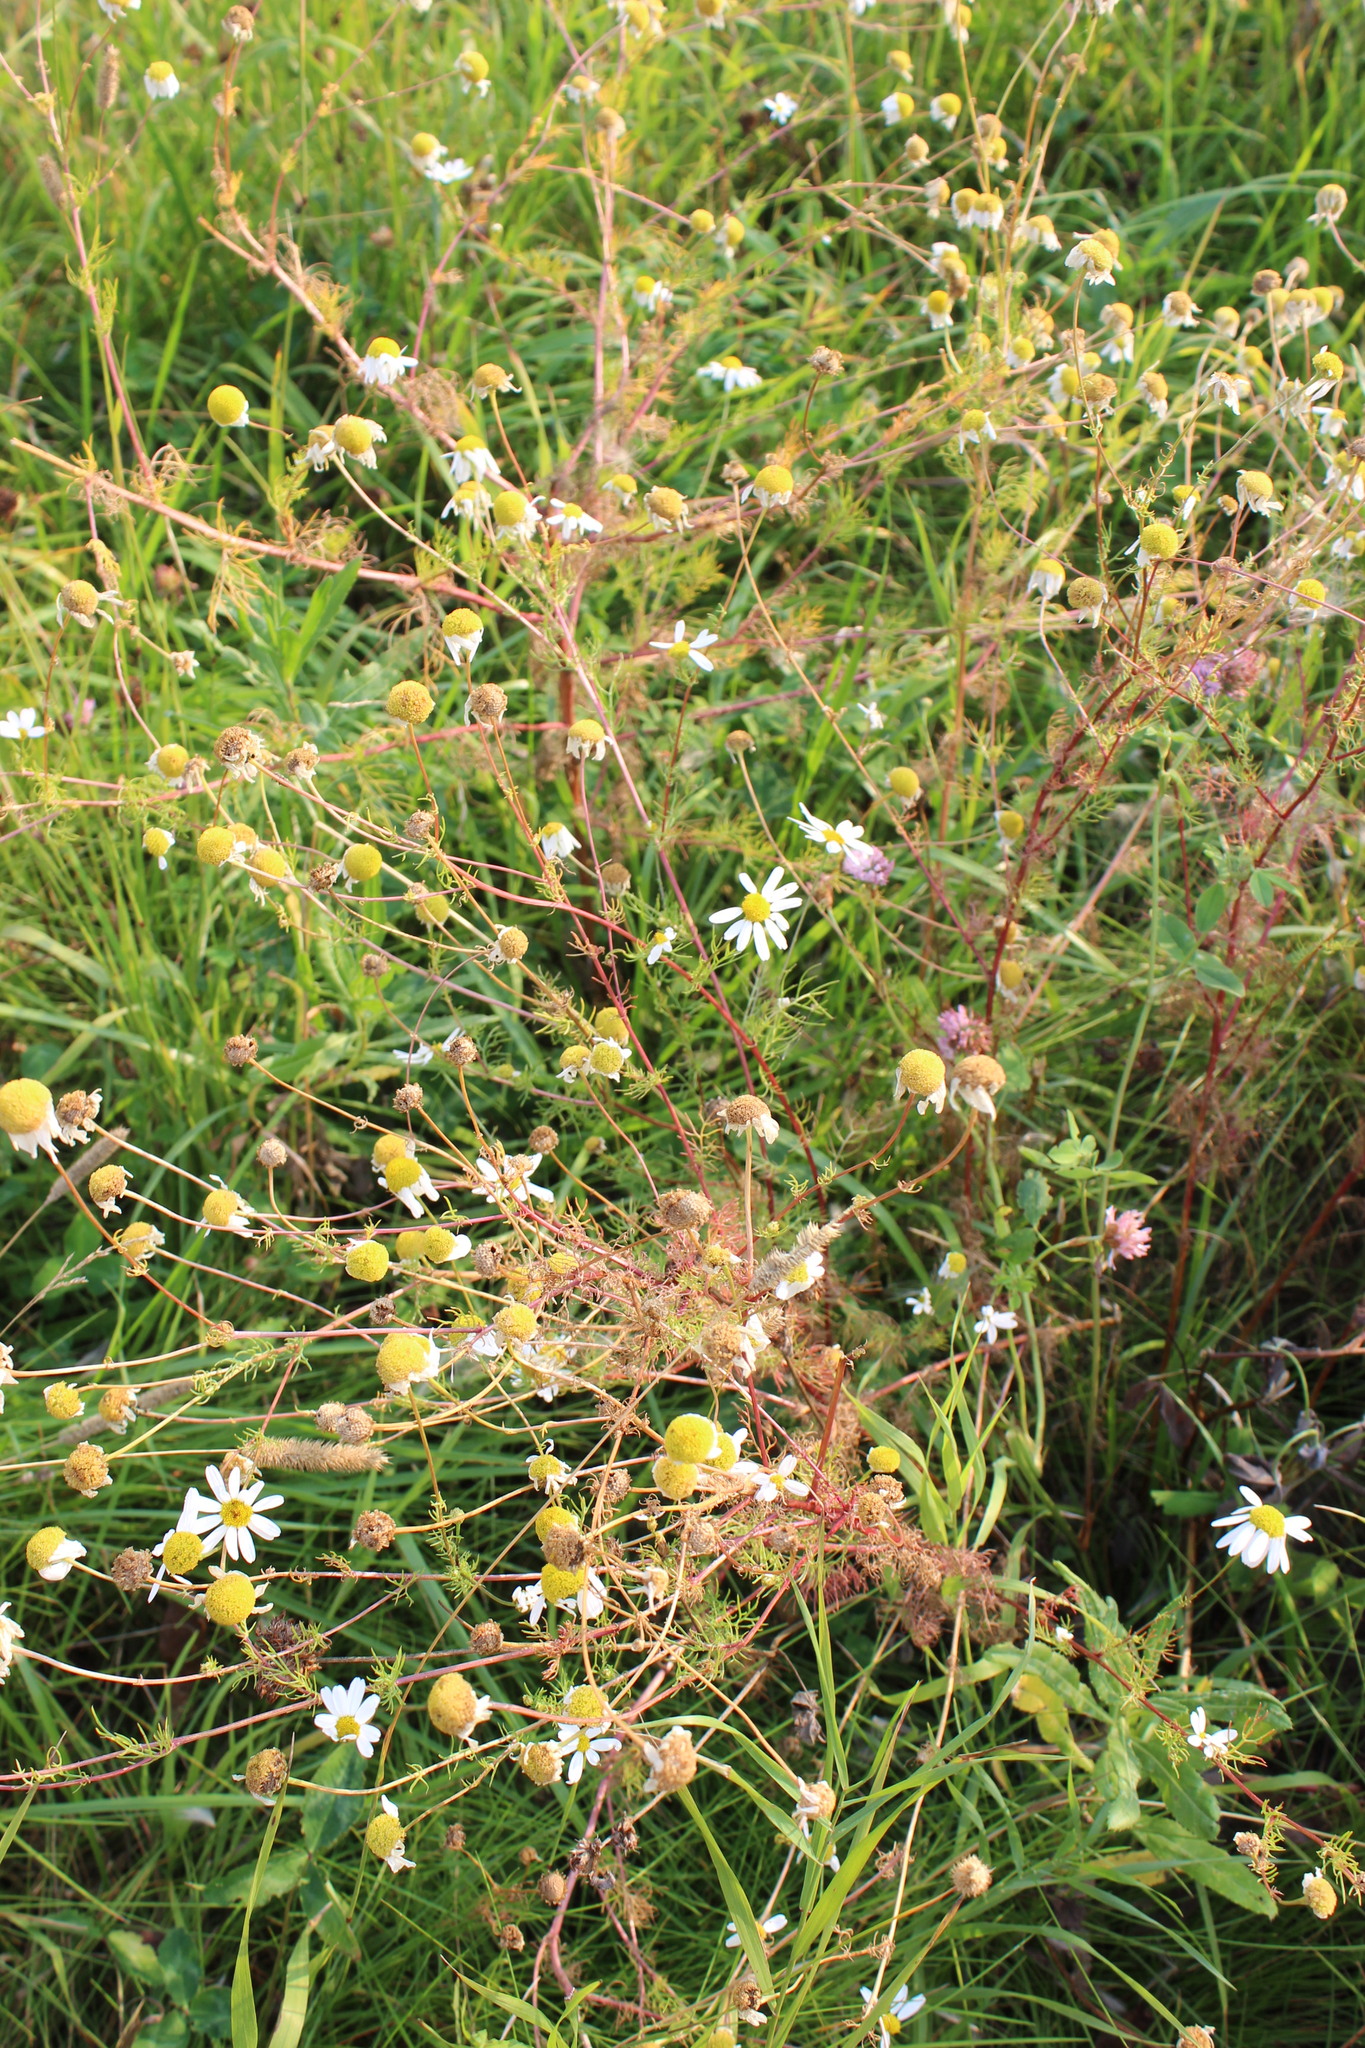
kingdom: Plantae
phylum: Tracheophyta
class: Magnoliopsida
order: Asterales
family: Asteraceae
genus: Tripleurospermum
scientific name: Tripleurospermum inodorum
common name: Scentless mayweed
